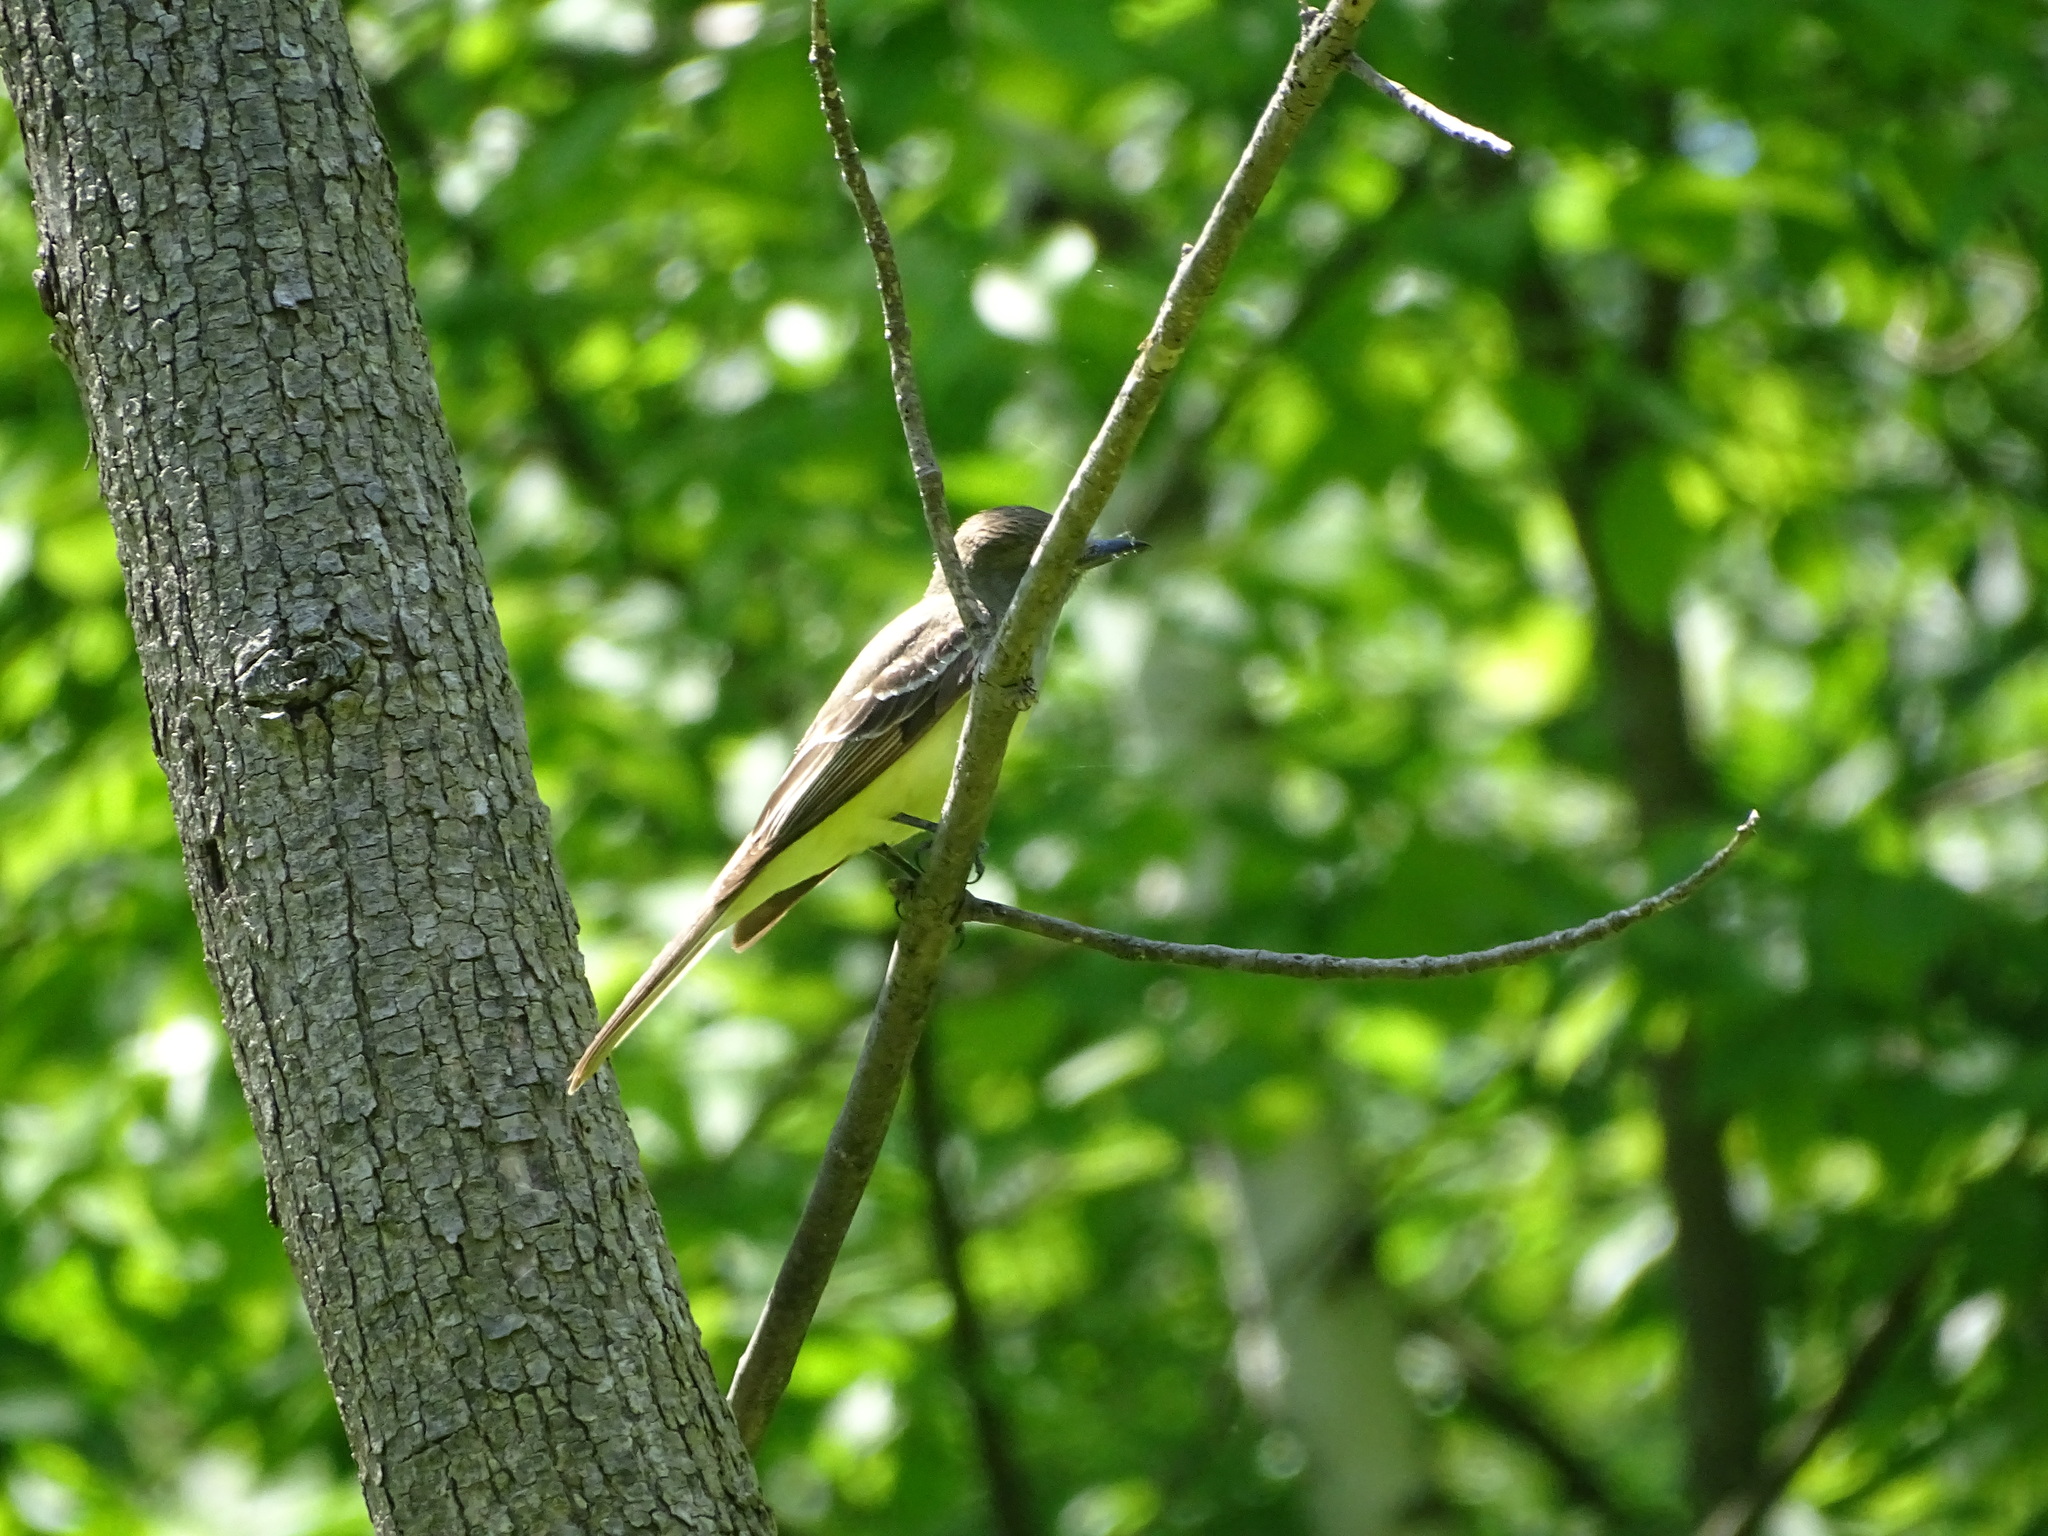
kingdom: Animalia
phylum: Chordata
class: Aves
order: Passeriformes
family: Tyrannidae
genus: Myiarchus
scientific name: Myiarchus crinitus
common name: Great crested flycatcher
